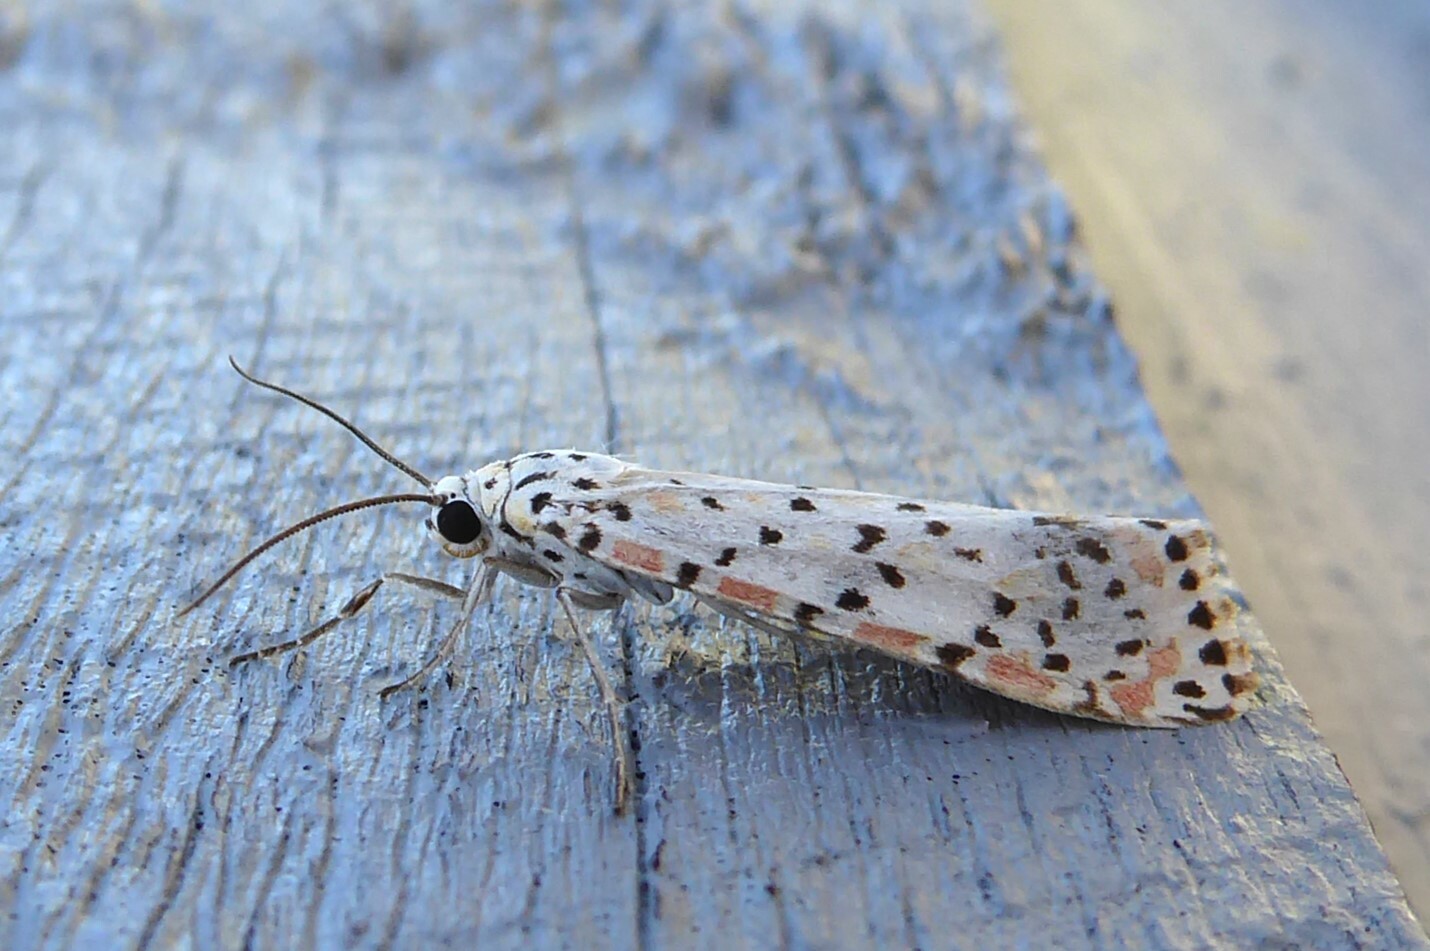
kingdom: Animalia
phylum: Arthropoda
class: Insecta
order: Lepidoptera
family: Erebidae
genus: Utetheisa
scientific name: Utetheisa pulchelloides
